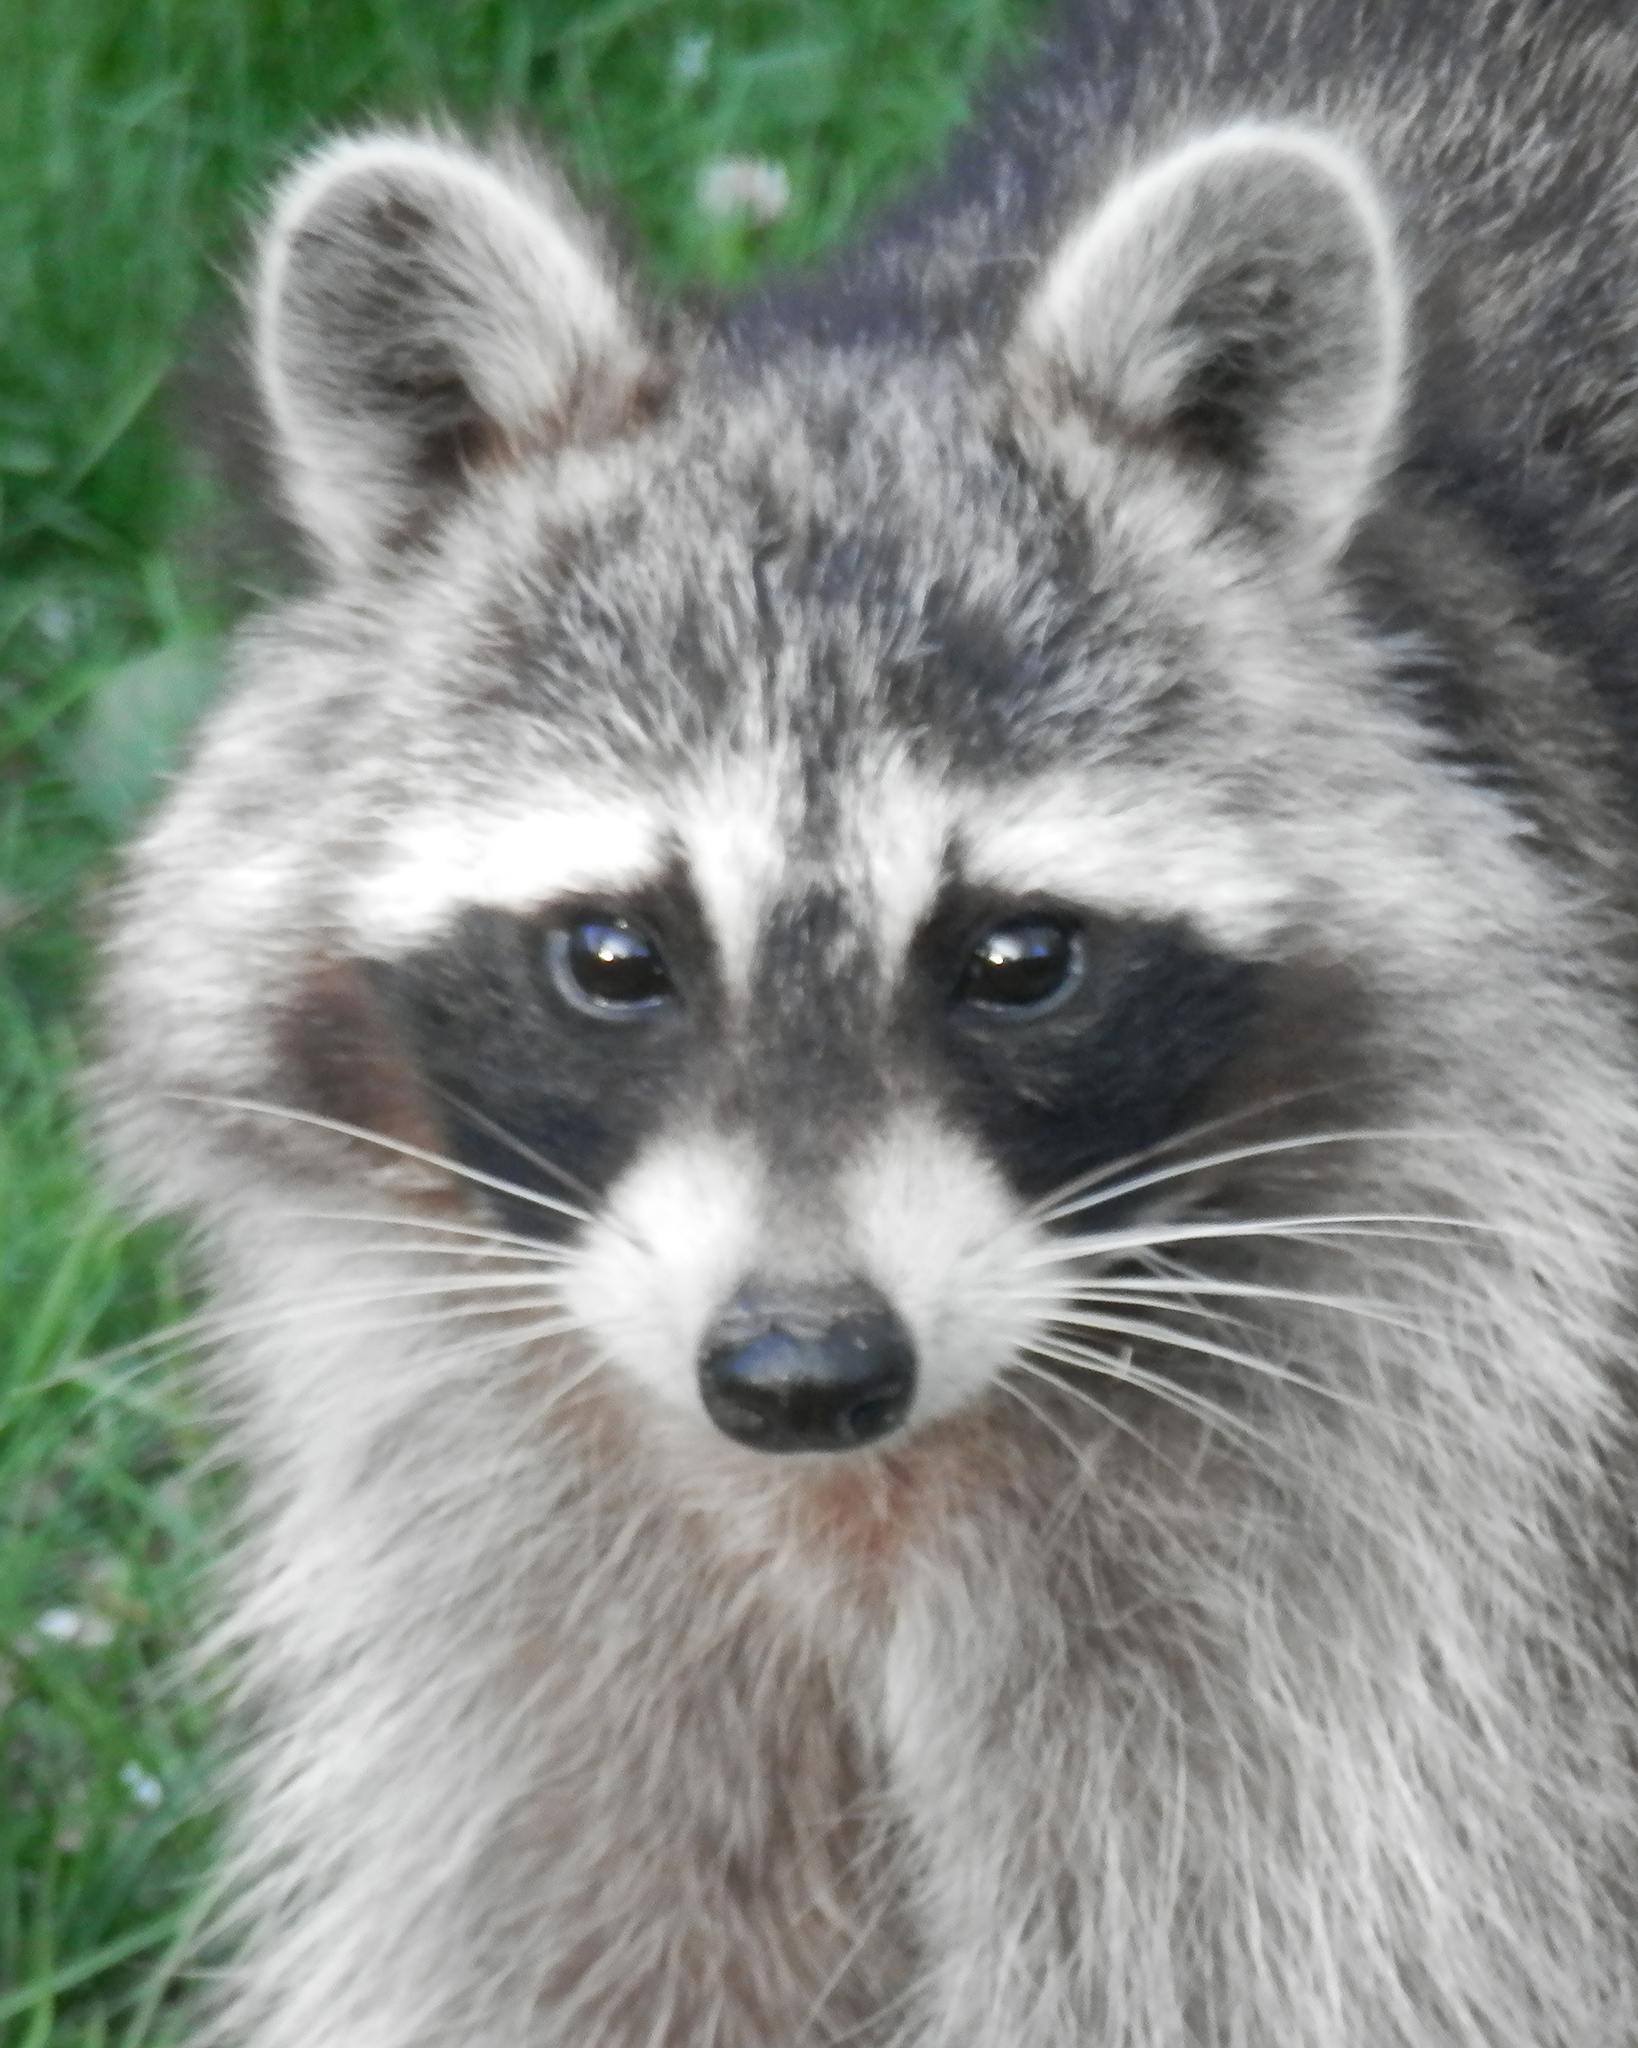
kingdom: Animalia
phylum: Chordata
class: Mammalia
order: Carnivora
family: Procyonidae
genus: Procyon
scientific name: Procyon lotor
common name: Raccoon
